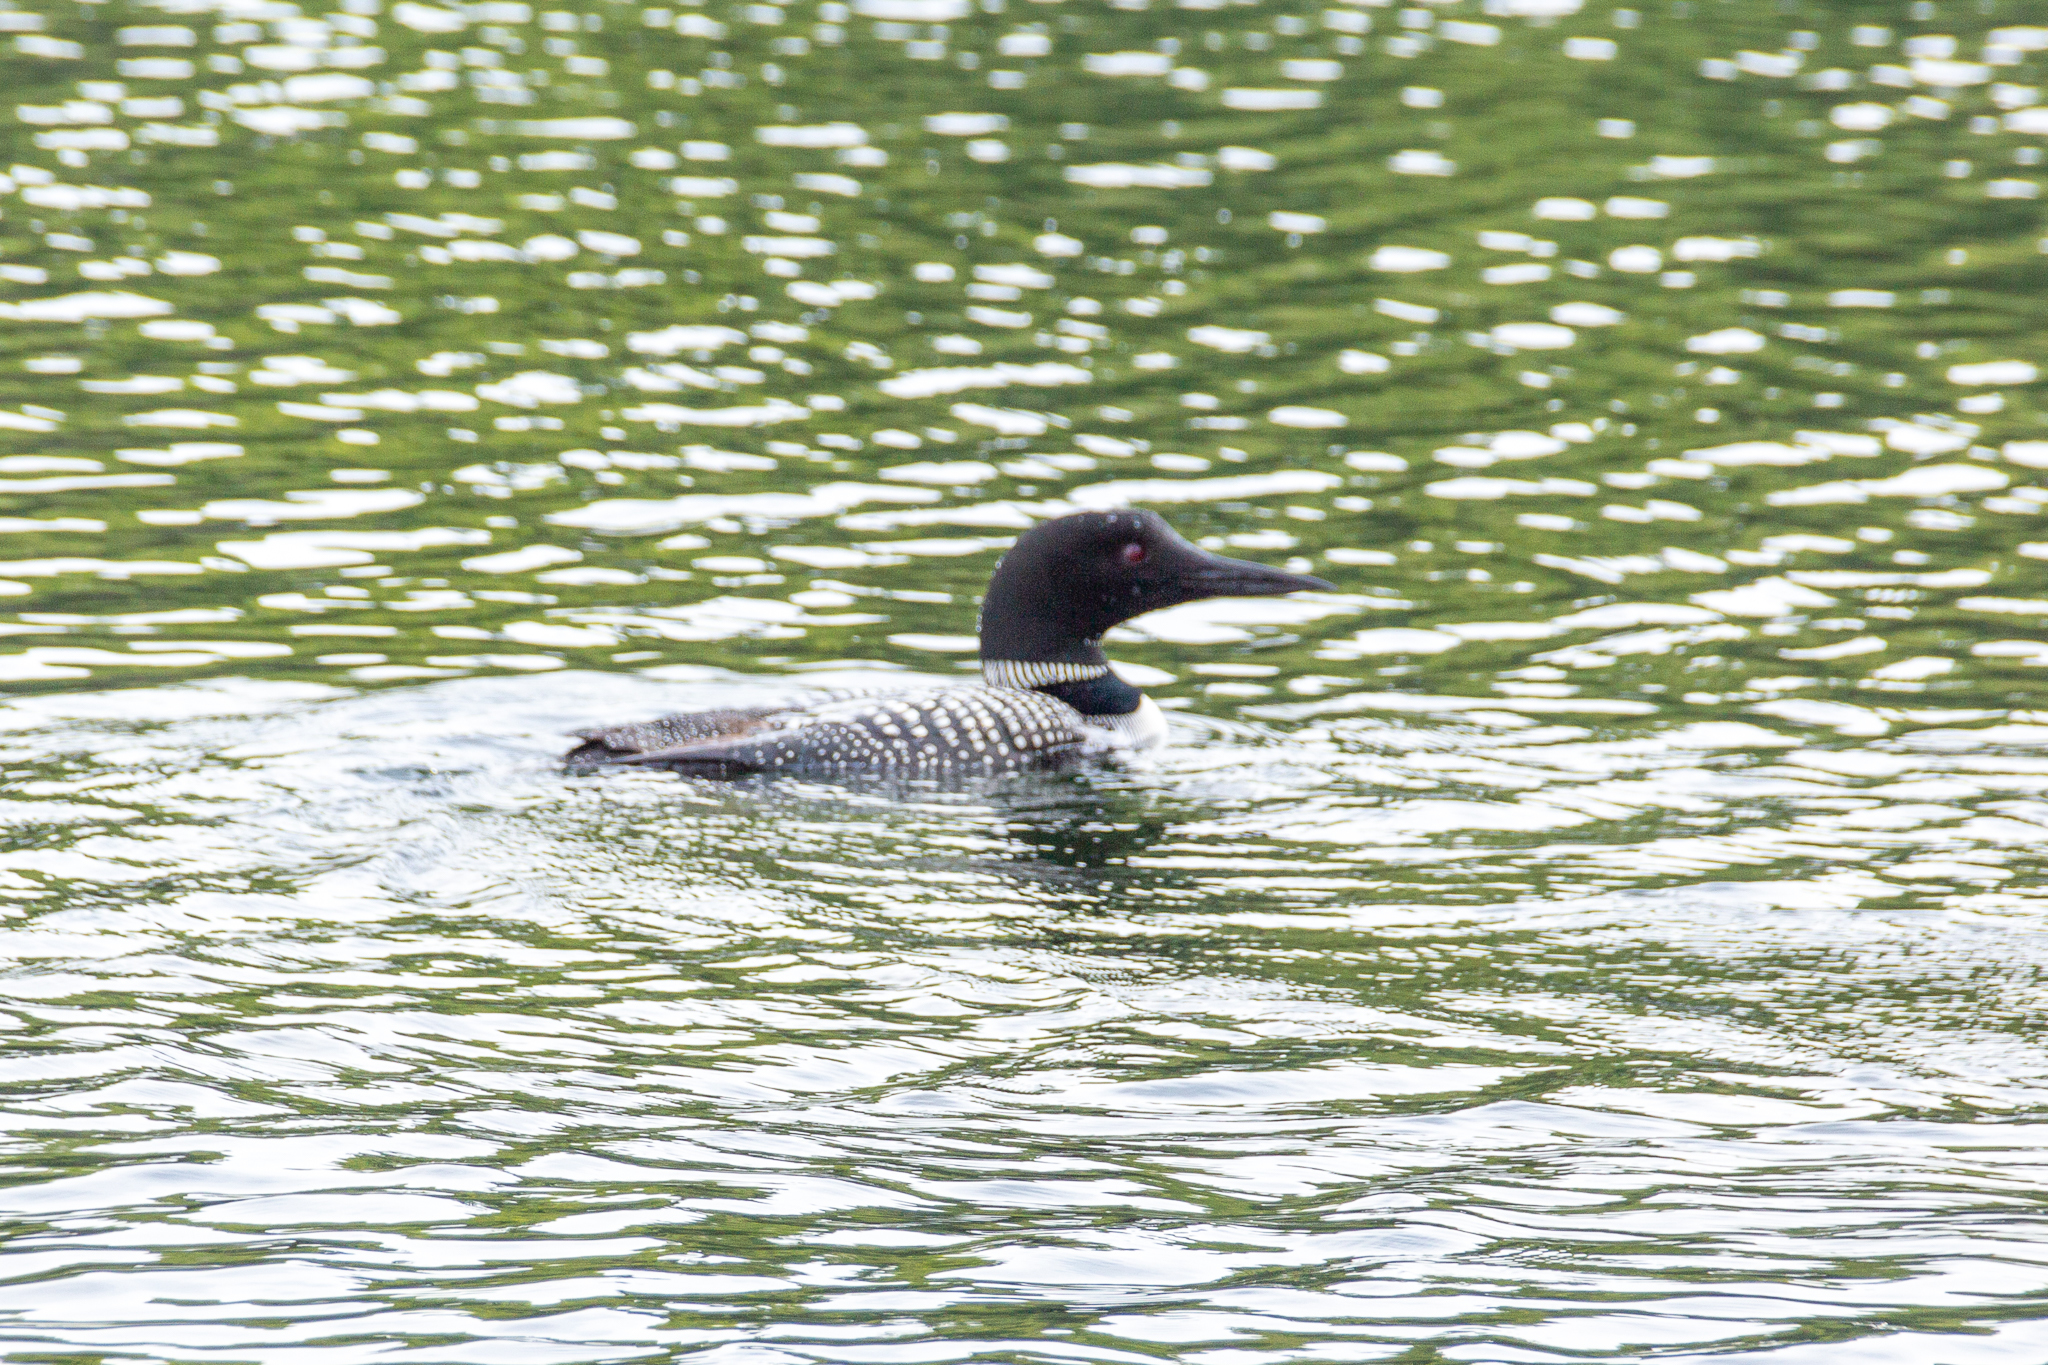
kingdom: Animalia
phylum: Chordata
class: Aves
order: Gaviiformes
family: Gaviidae
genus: Gavia
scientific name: Gavia immer
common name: Common loon
